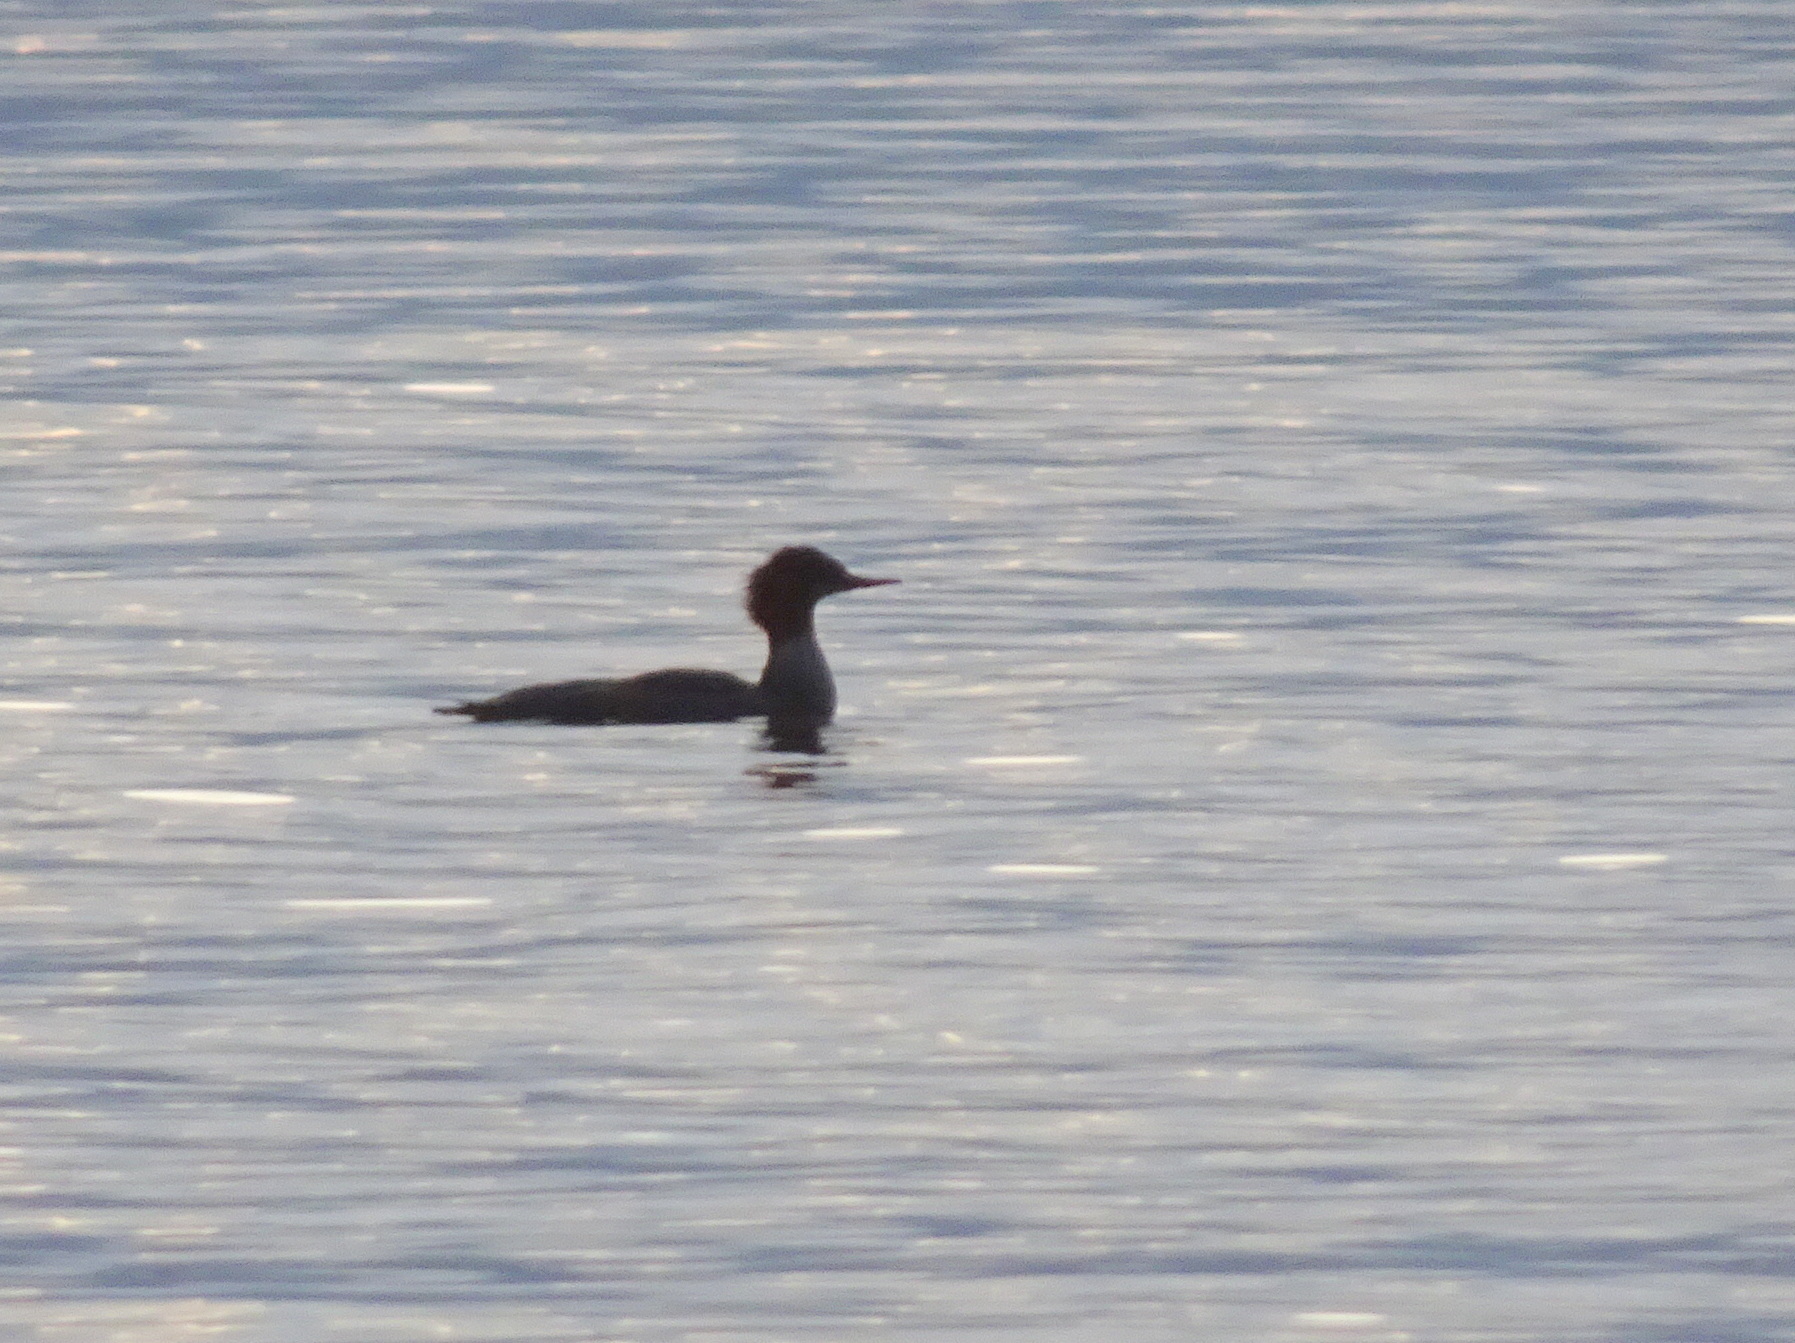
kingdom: Animalia
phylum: Chordata
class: Aves
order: Anseriformes
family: Anatidae
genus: Mergus
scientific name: Mergus merganser
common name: Common merganser
